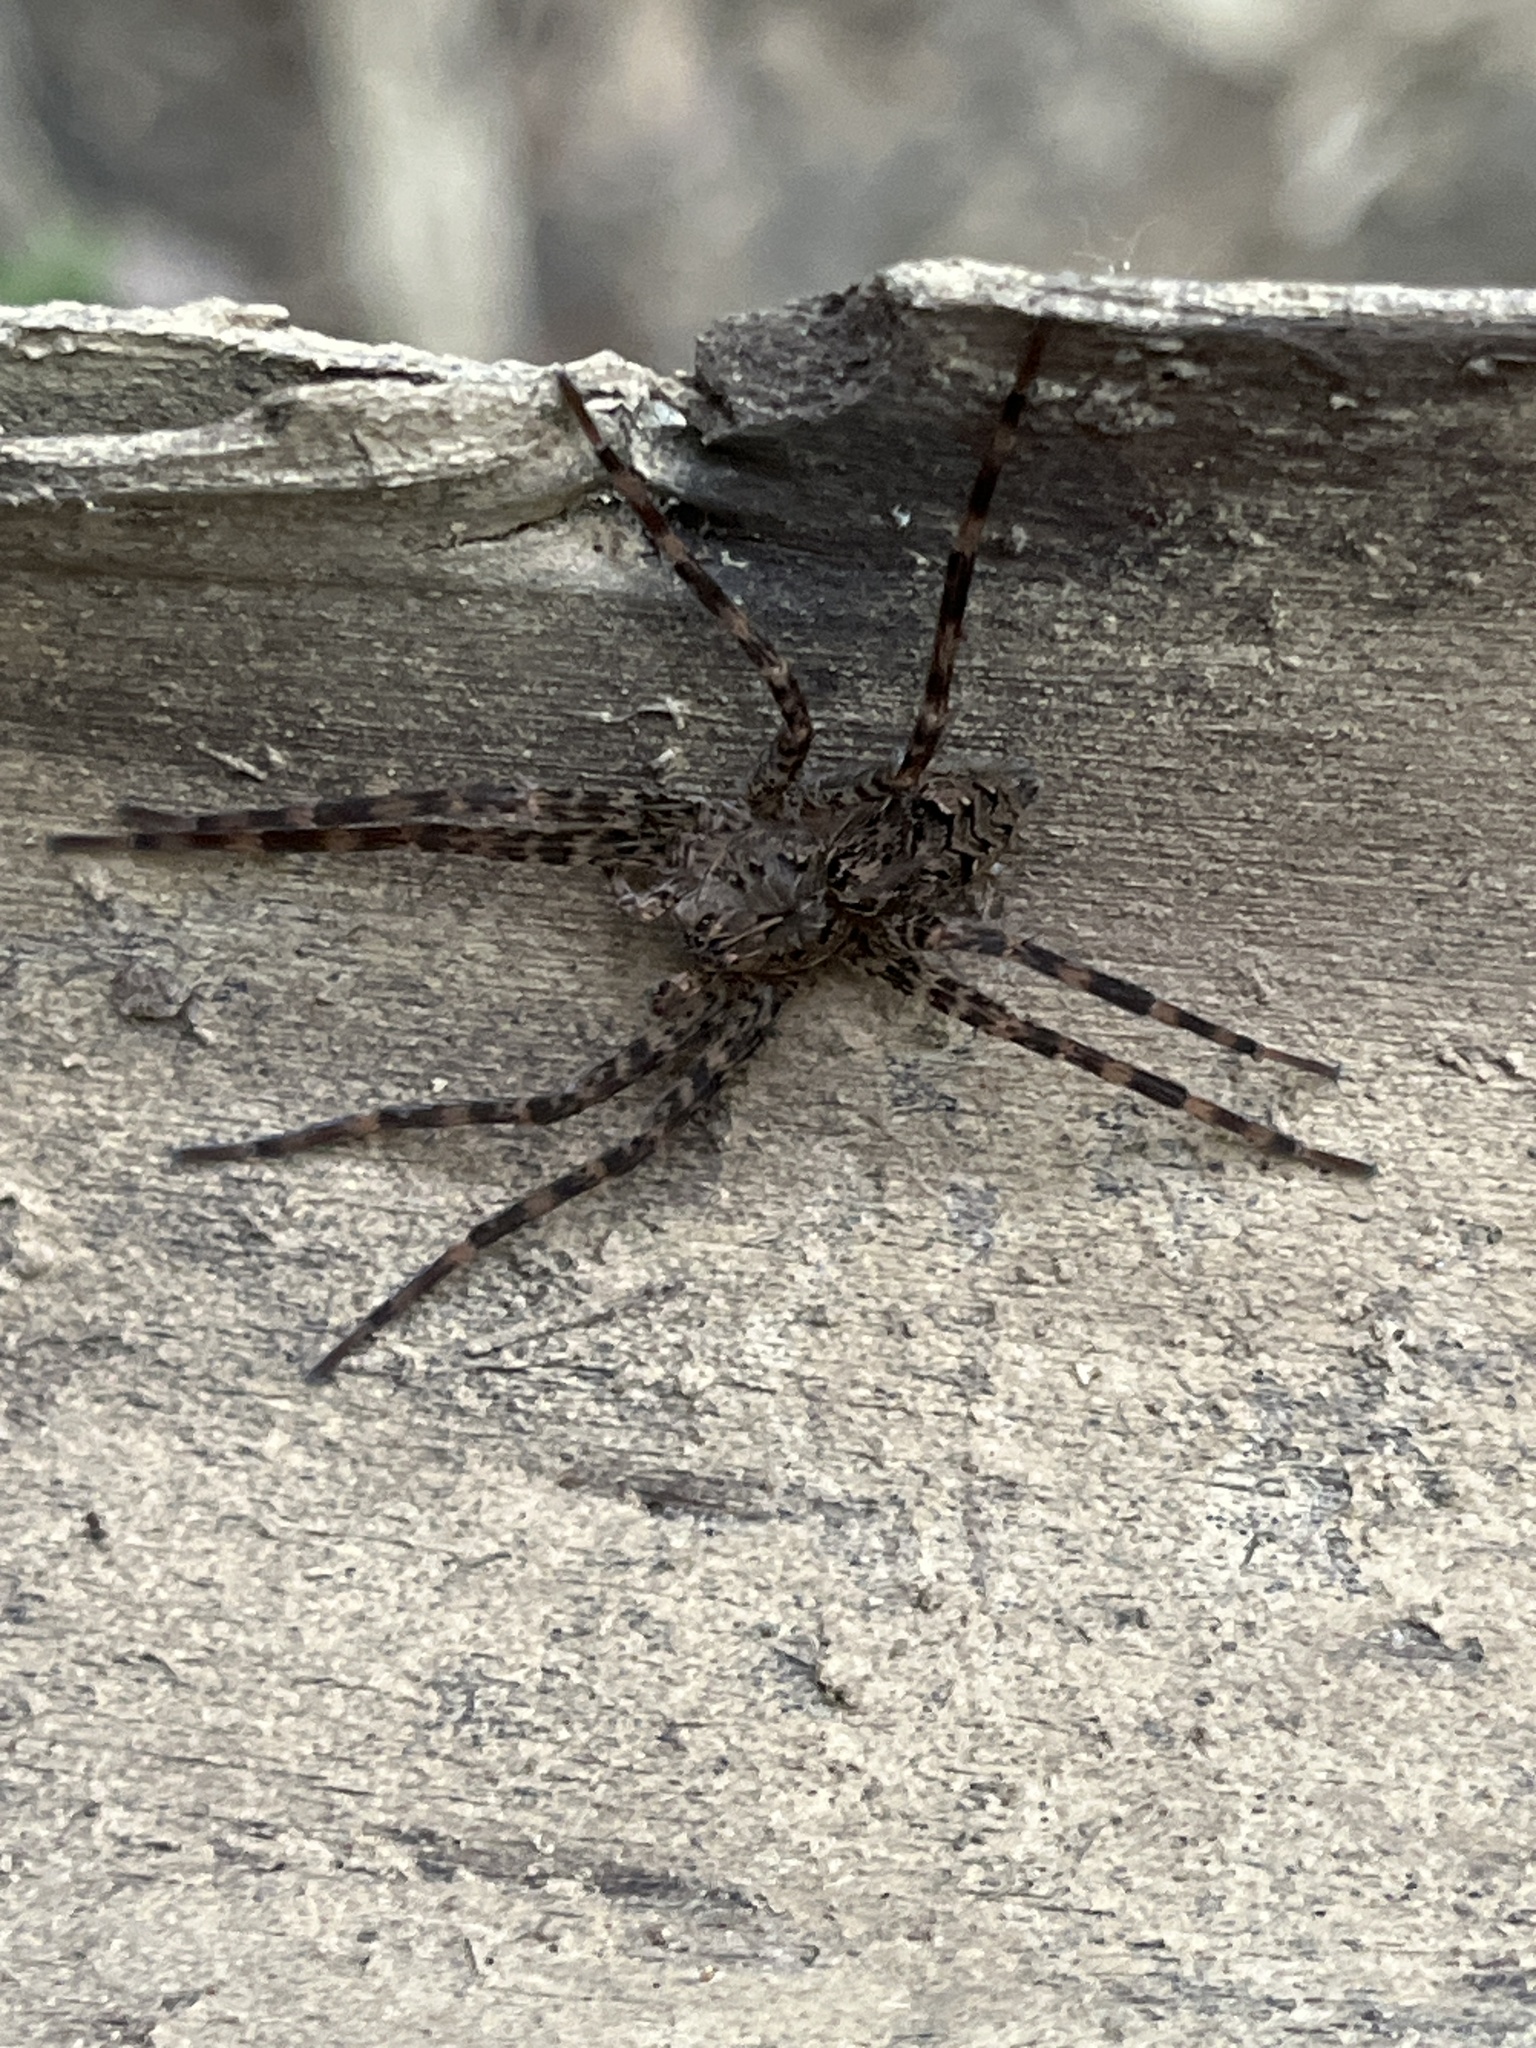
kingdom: Animalia
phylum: Arthropoda
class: Arachnida
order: Araneae
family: Pisauridae
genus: Dolomedes
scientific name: Dolomedes tenebrosus
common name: Dark fishing spider
